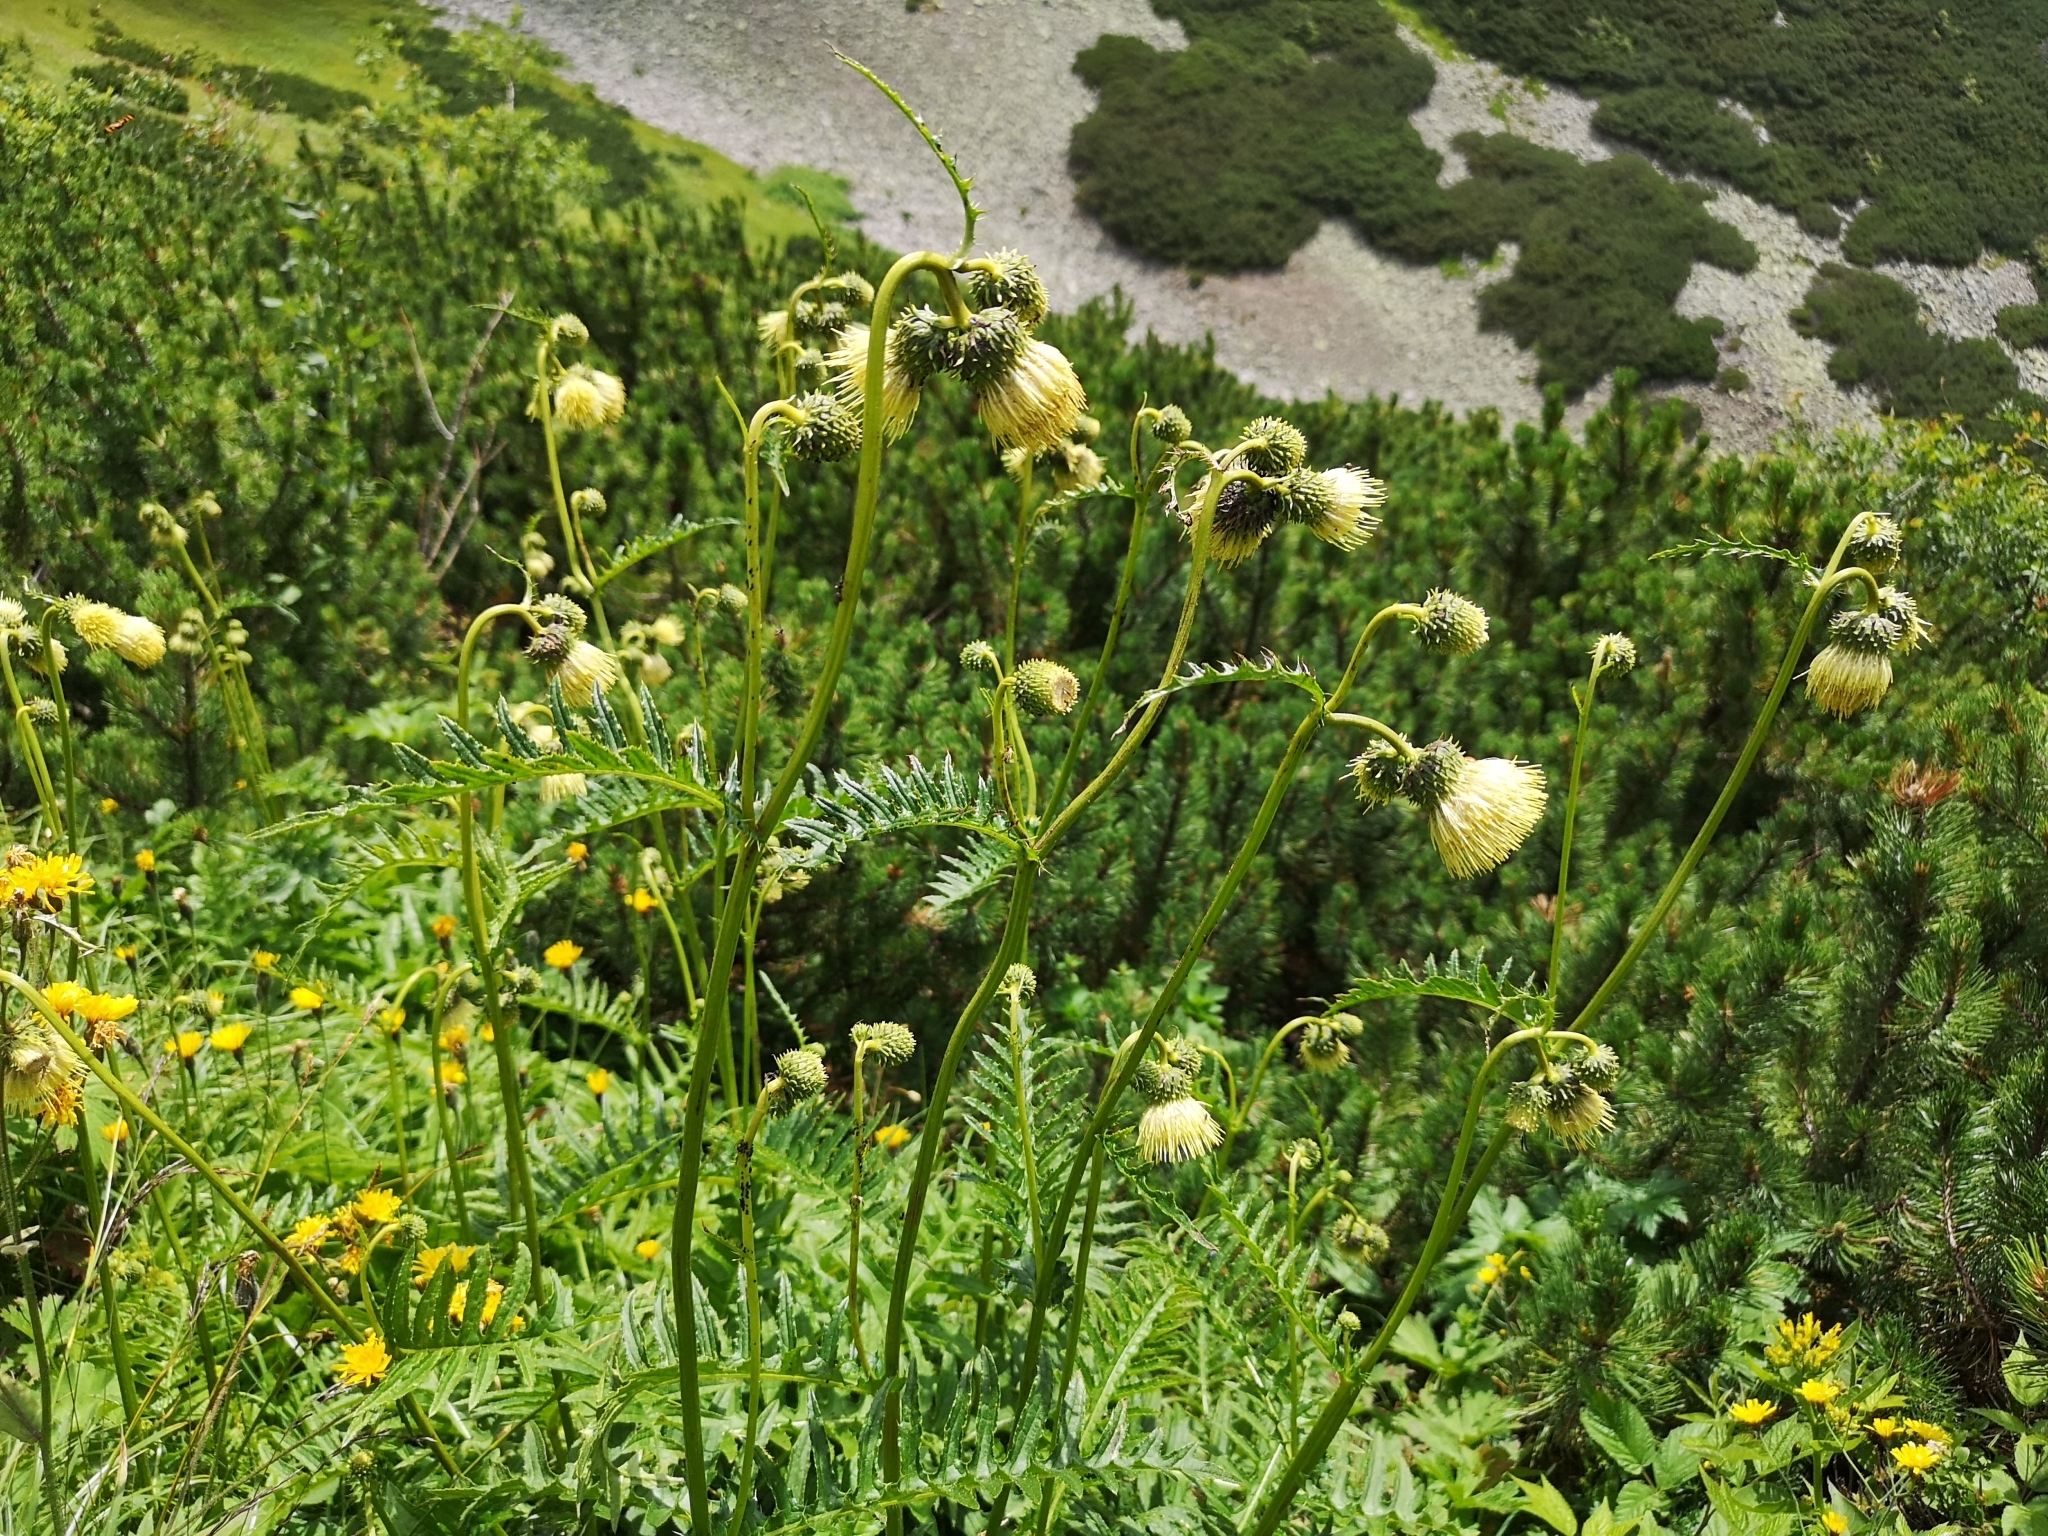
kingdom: Plantae
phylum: Tracheophyta
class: Magnoliopsida
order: Asterales
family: Asteraceae
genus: Cirsium
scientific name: Cirsium erisithales
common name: Yellow thistle
